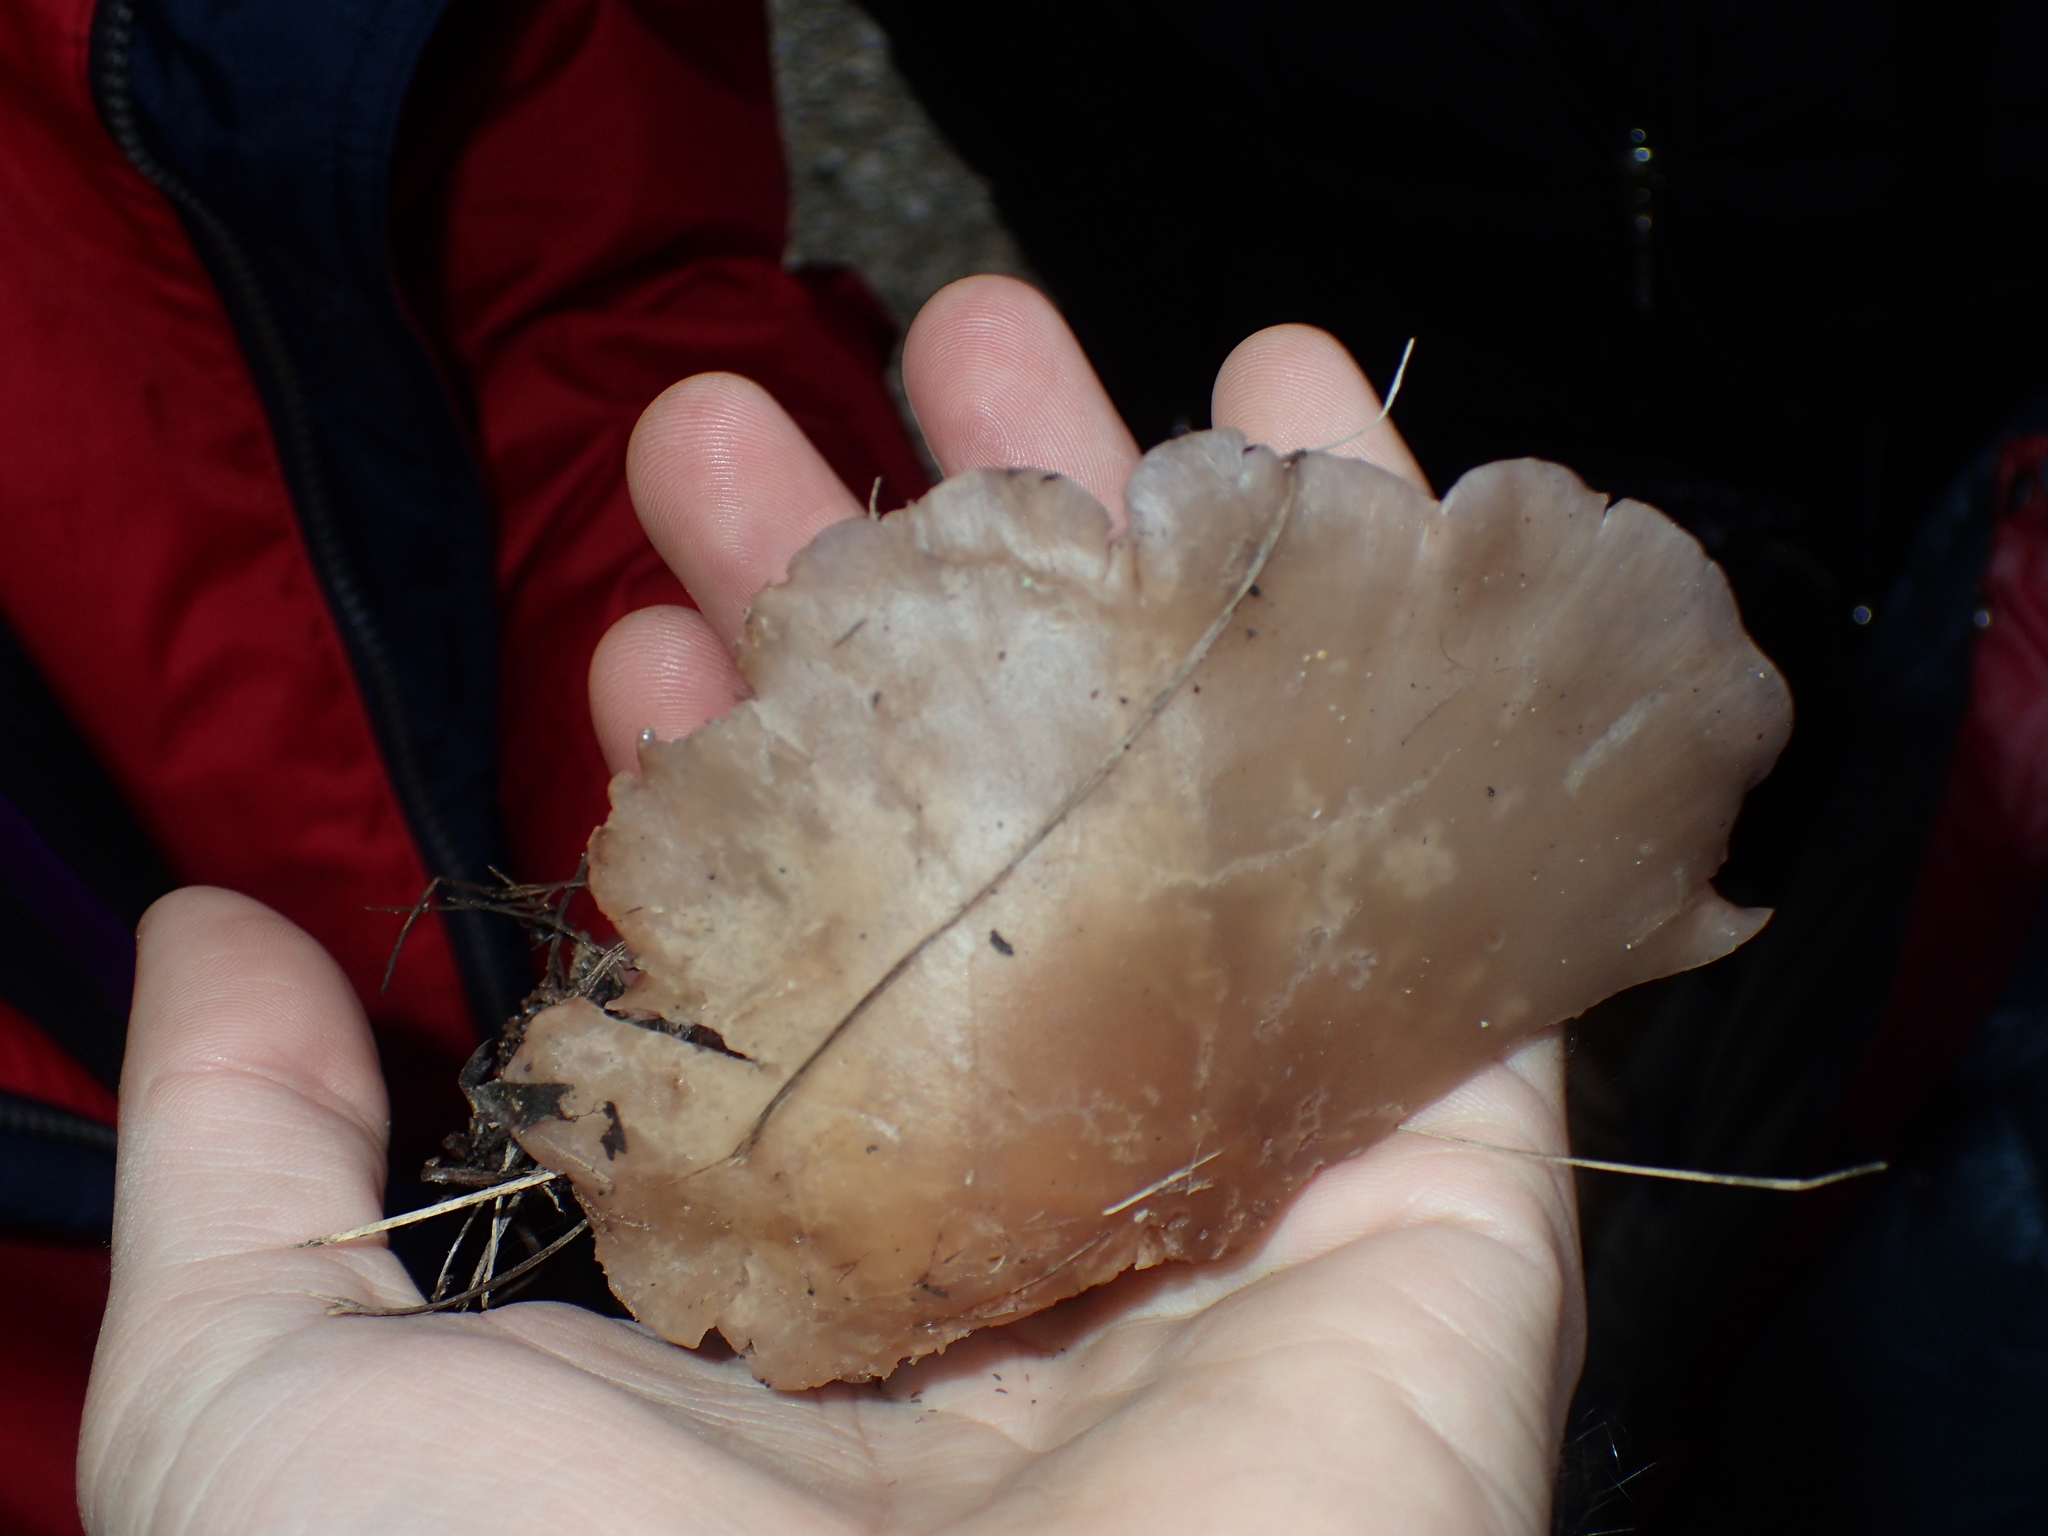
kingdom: Fungi
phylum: Basidiomycota
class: Agaricomycetes
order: Agaricales
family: Tricholomataceae
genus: Collybia
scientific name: Collybia
